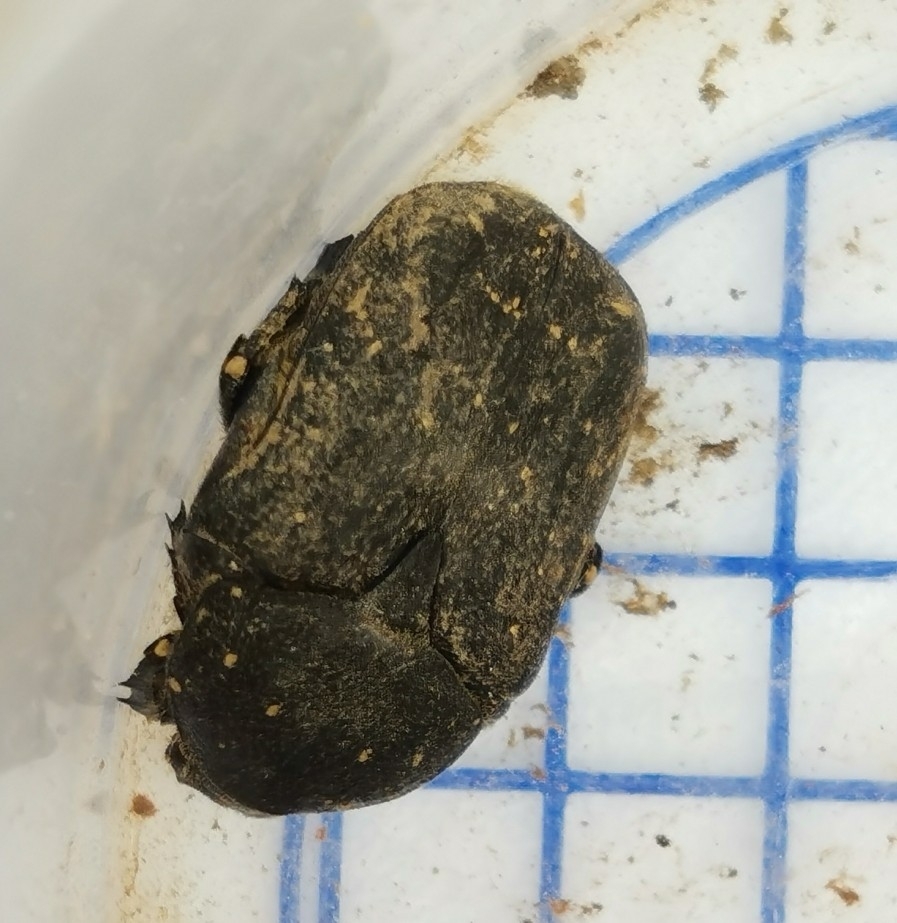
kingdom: Animalia
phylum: Arthropoda
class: Insecta
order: Coleoptera
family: Scarabaeidae
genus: Protaetia
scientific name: Protaetia morio
